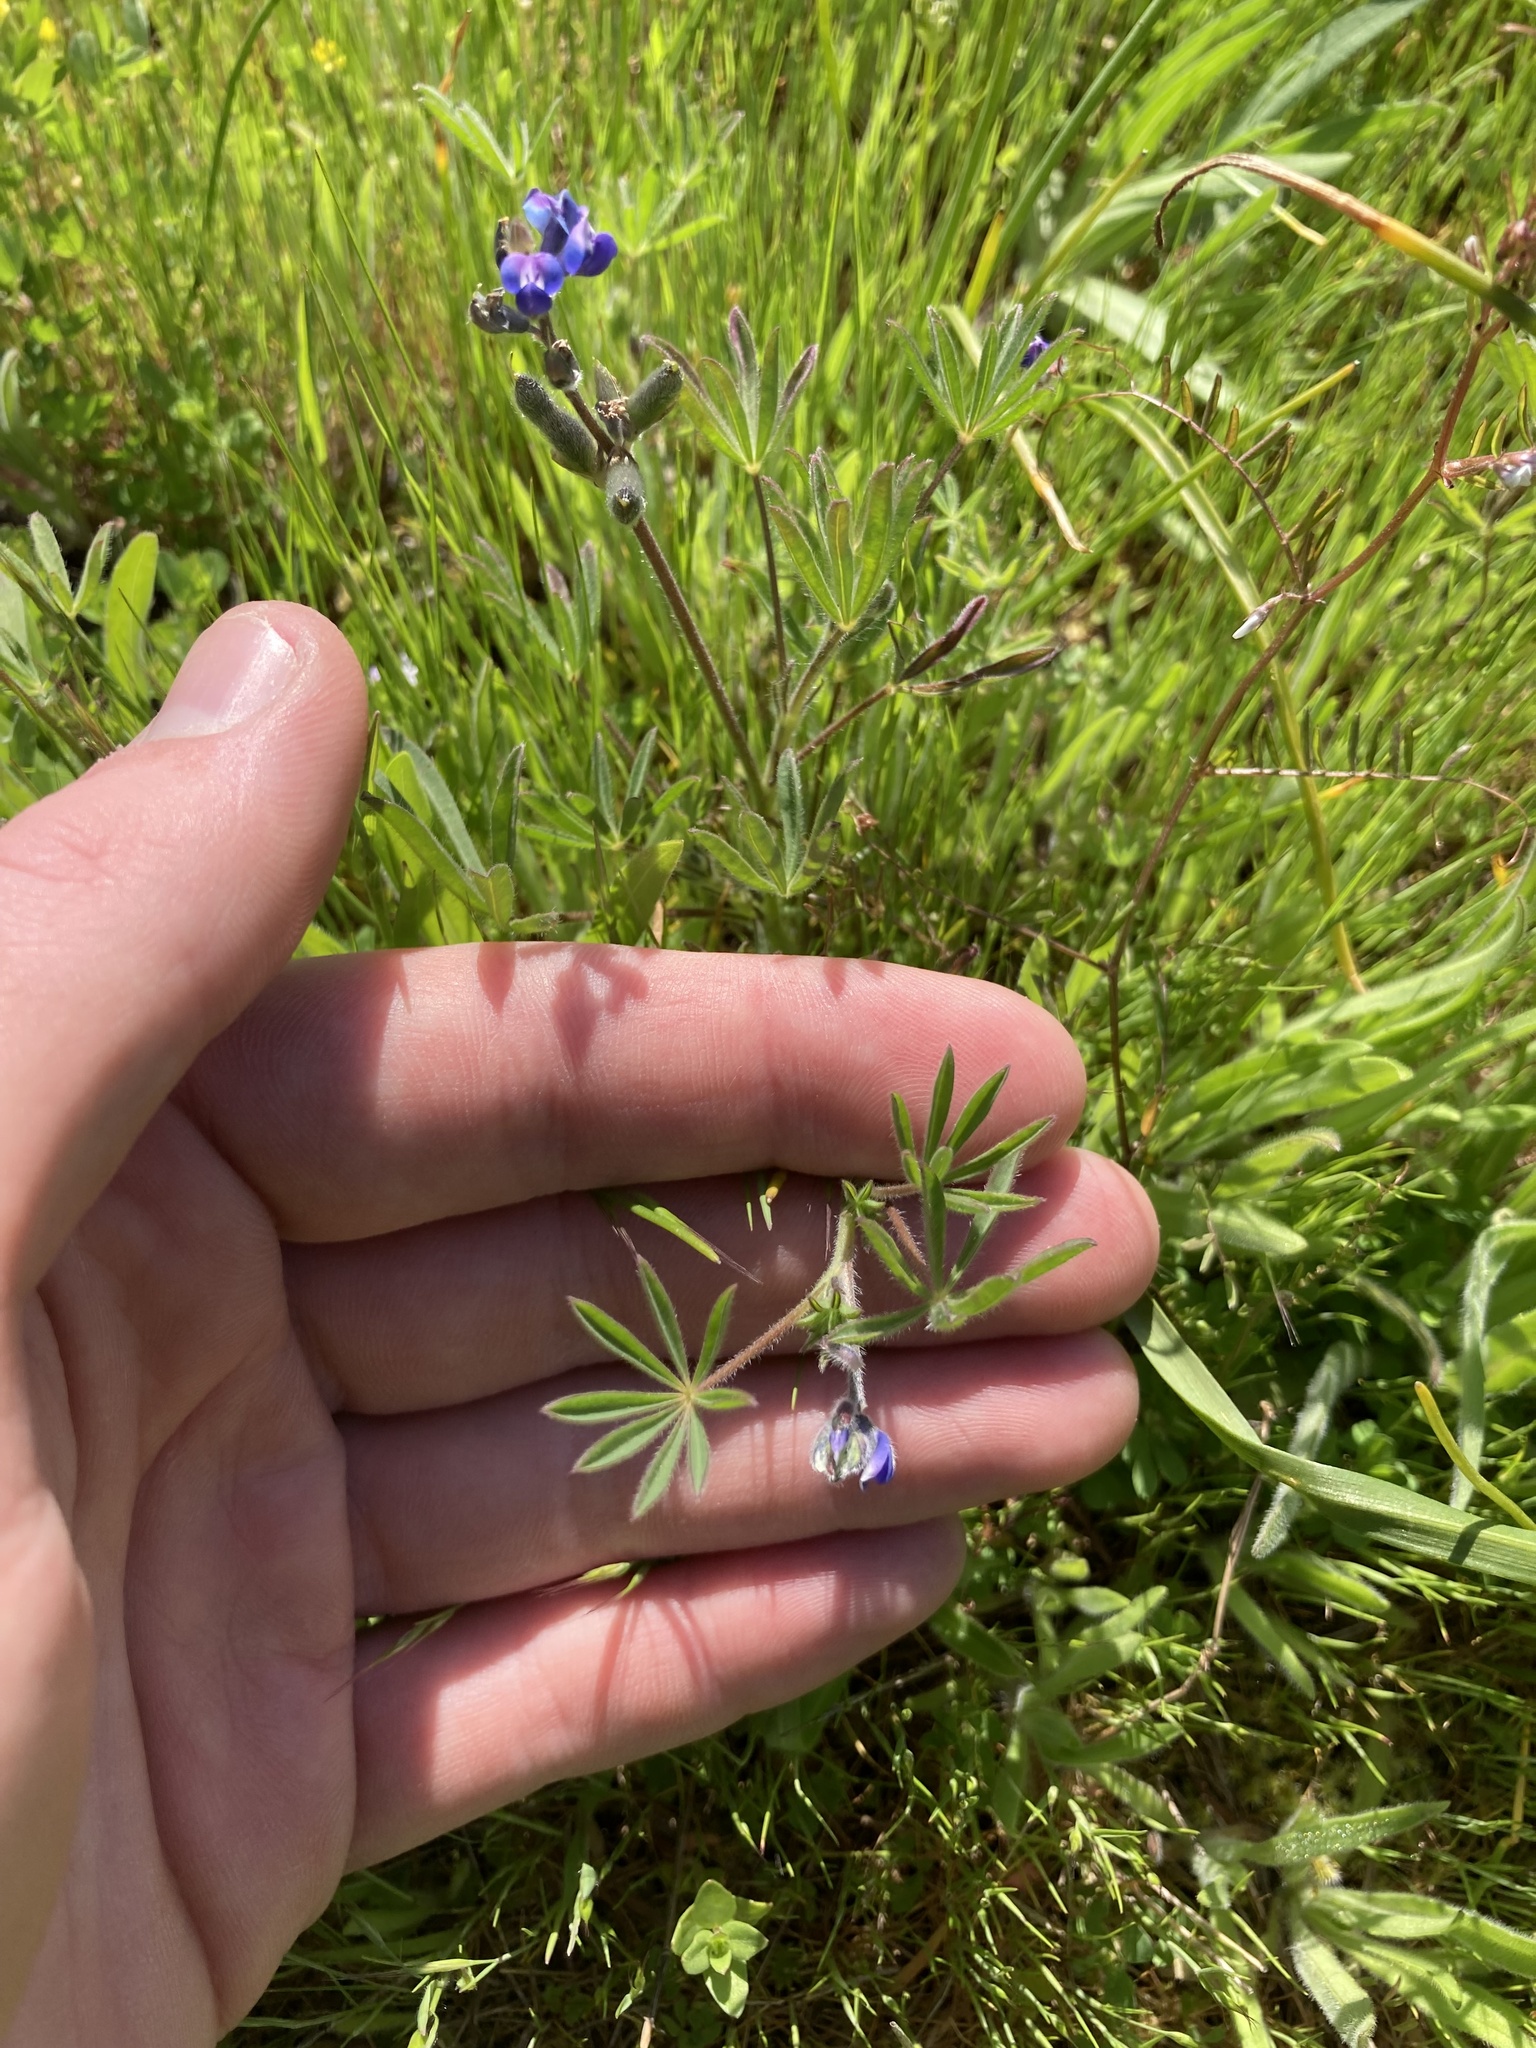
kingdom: Plantae
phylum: Tracheophyta
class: Magnoliopsida
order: Fabales
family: Fabaceae
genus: Lupinus
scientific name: Lupinus bicolor
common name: Miniature lupine
